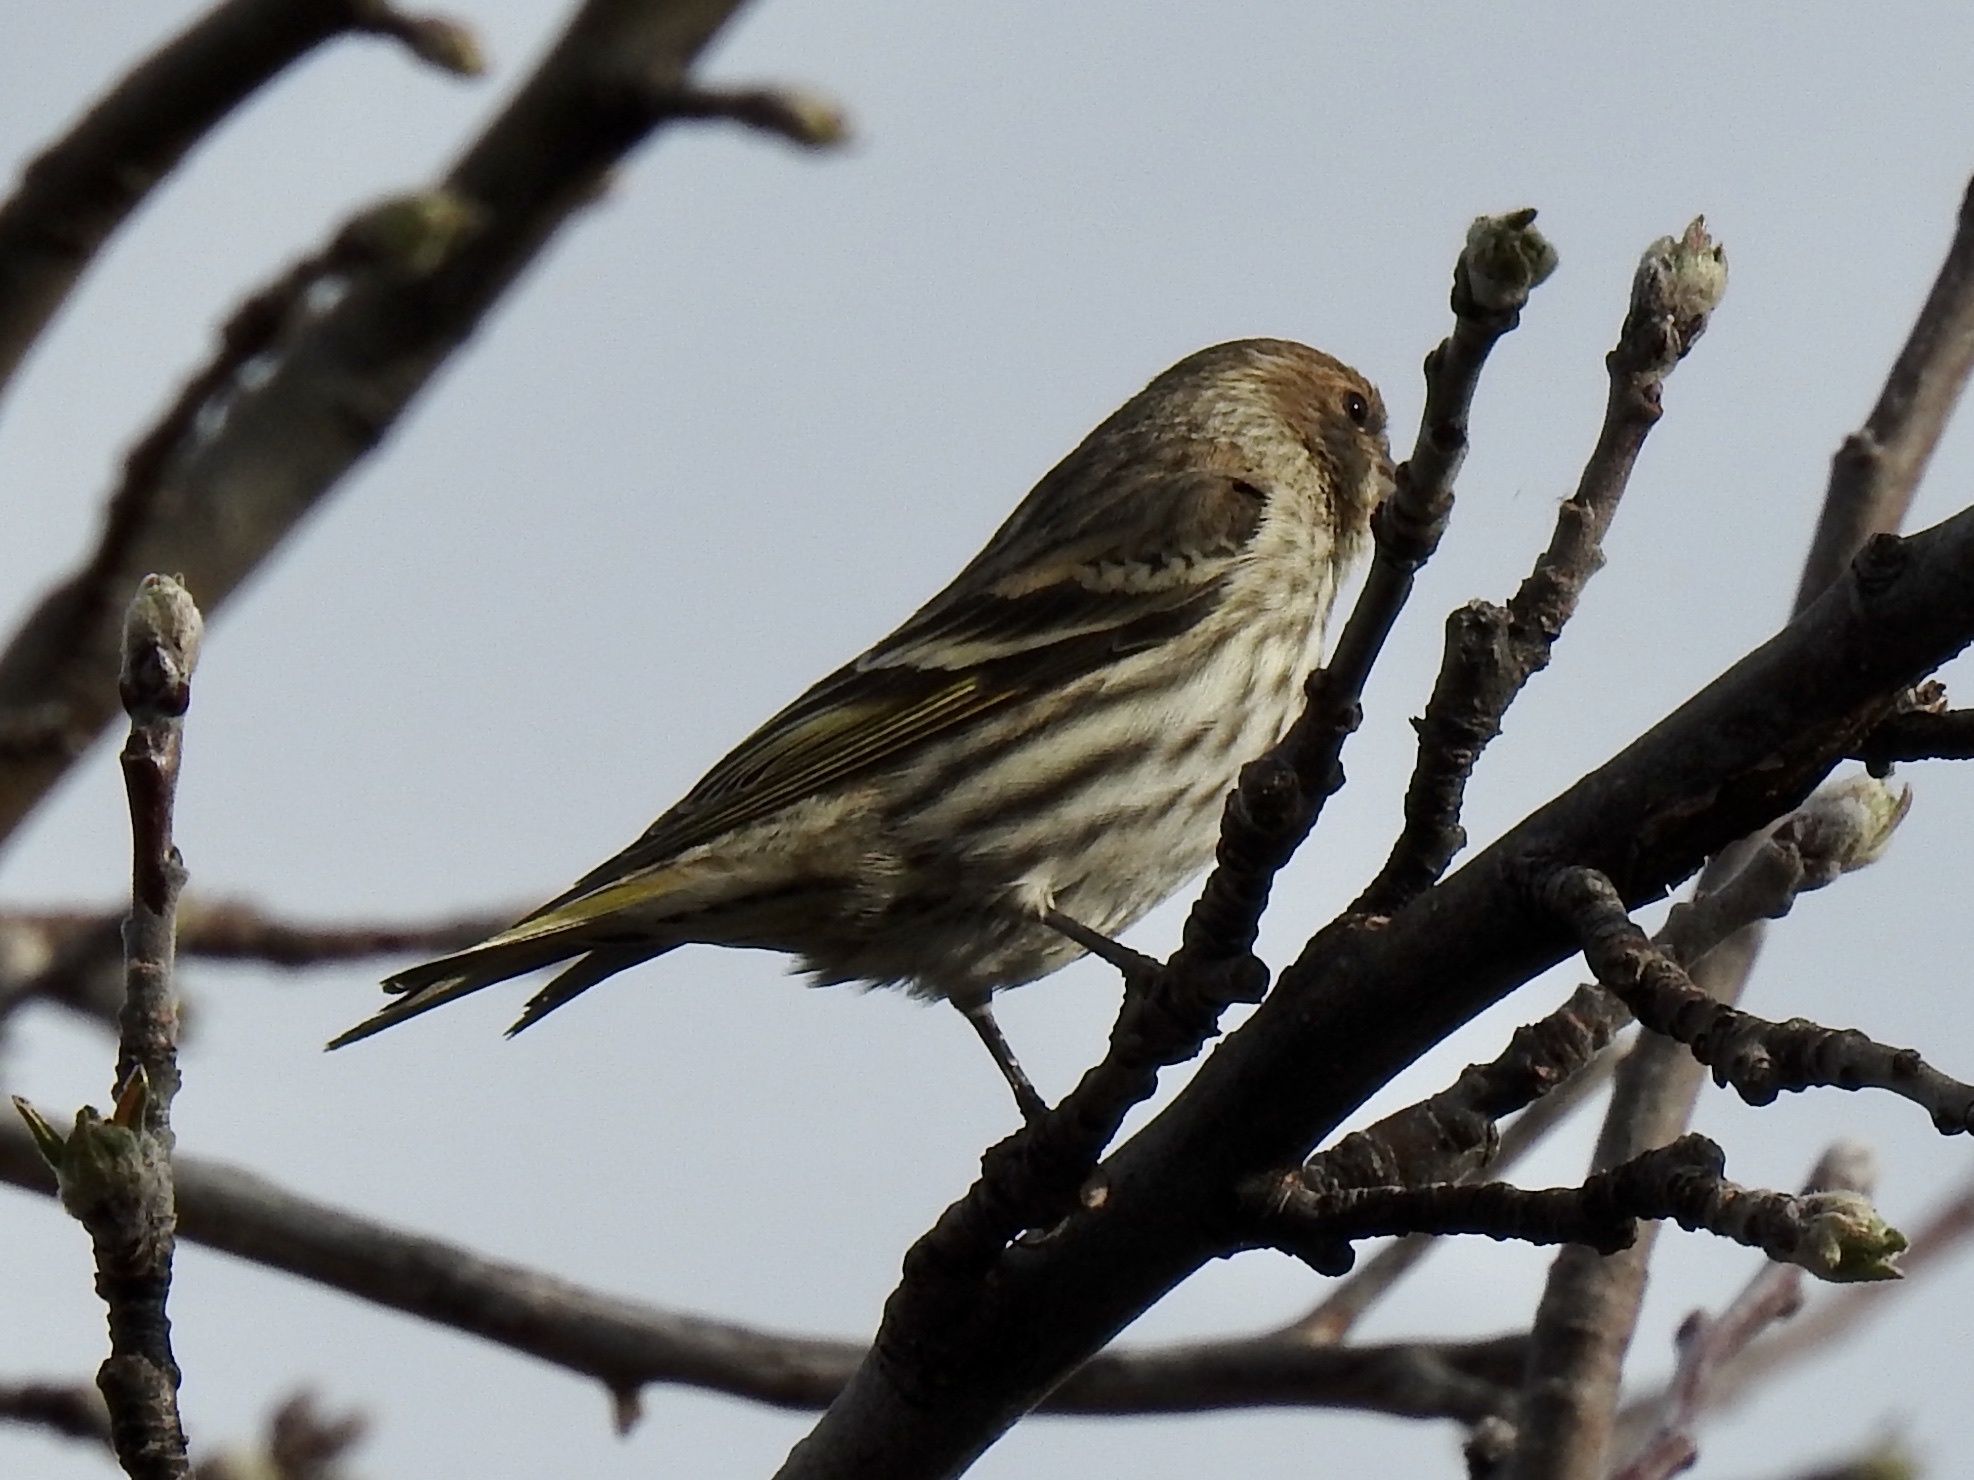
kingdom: Animalia
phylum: Chordata
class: Aves
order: Passeriformes
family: Fringillidae
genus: Spinus
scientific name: Spinus pinus
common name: Pine siskin
